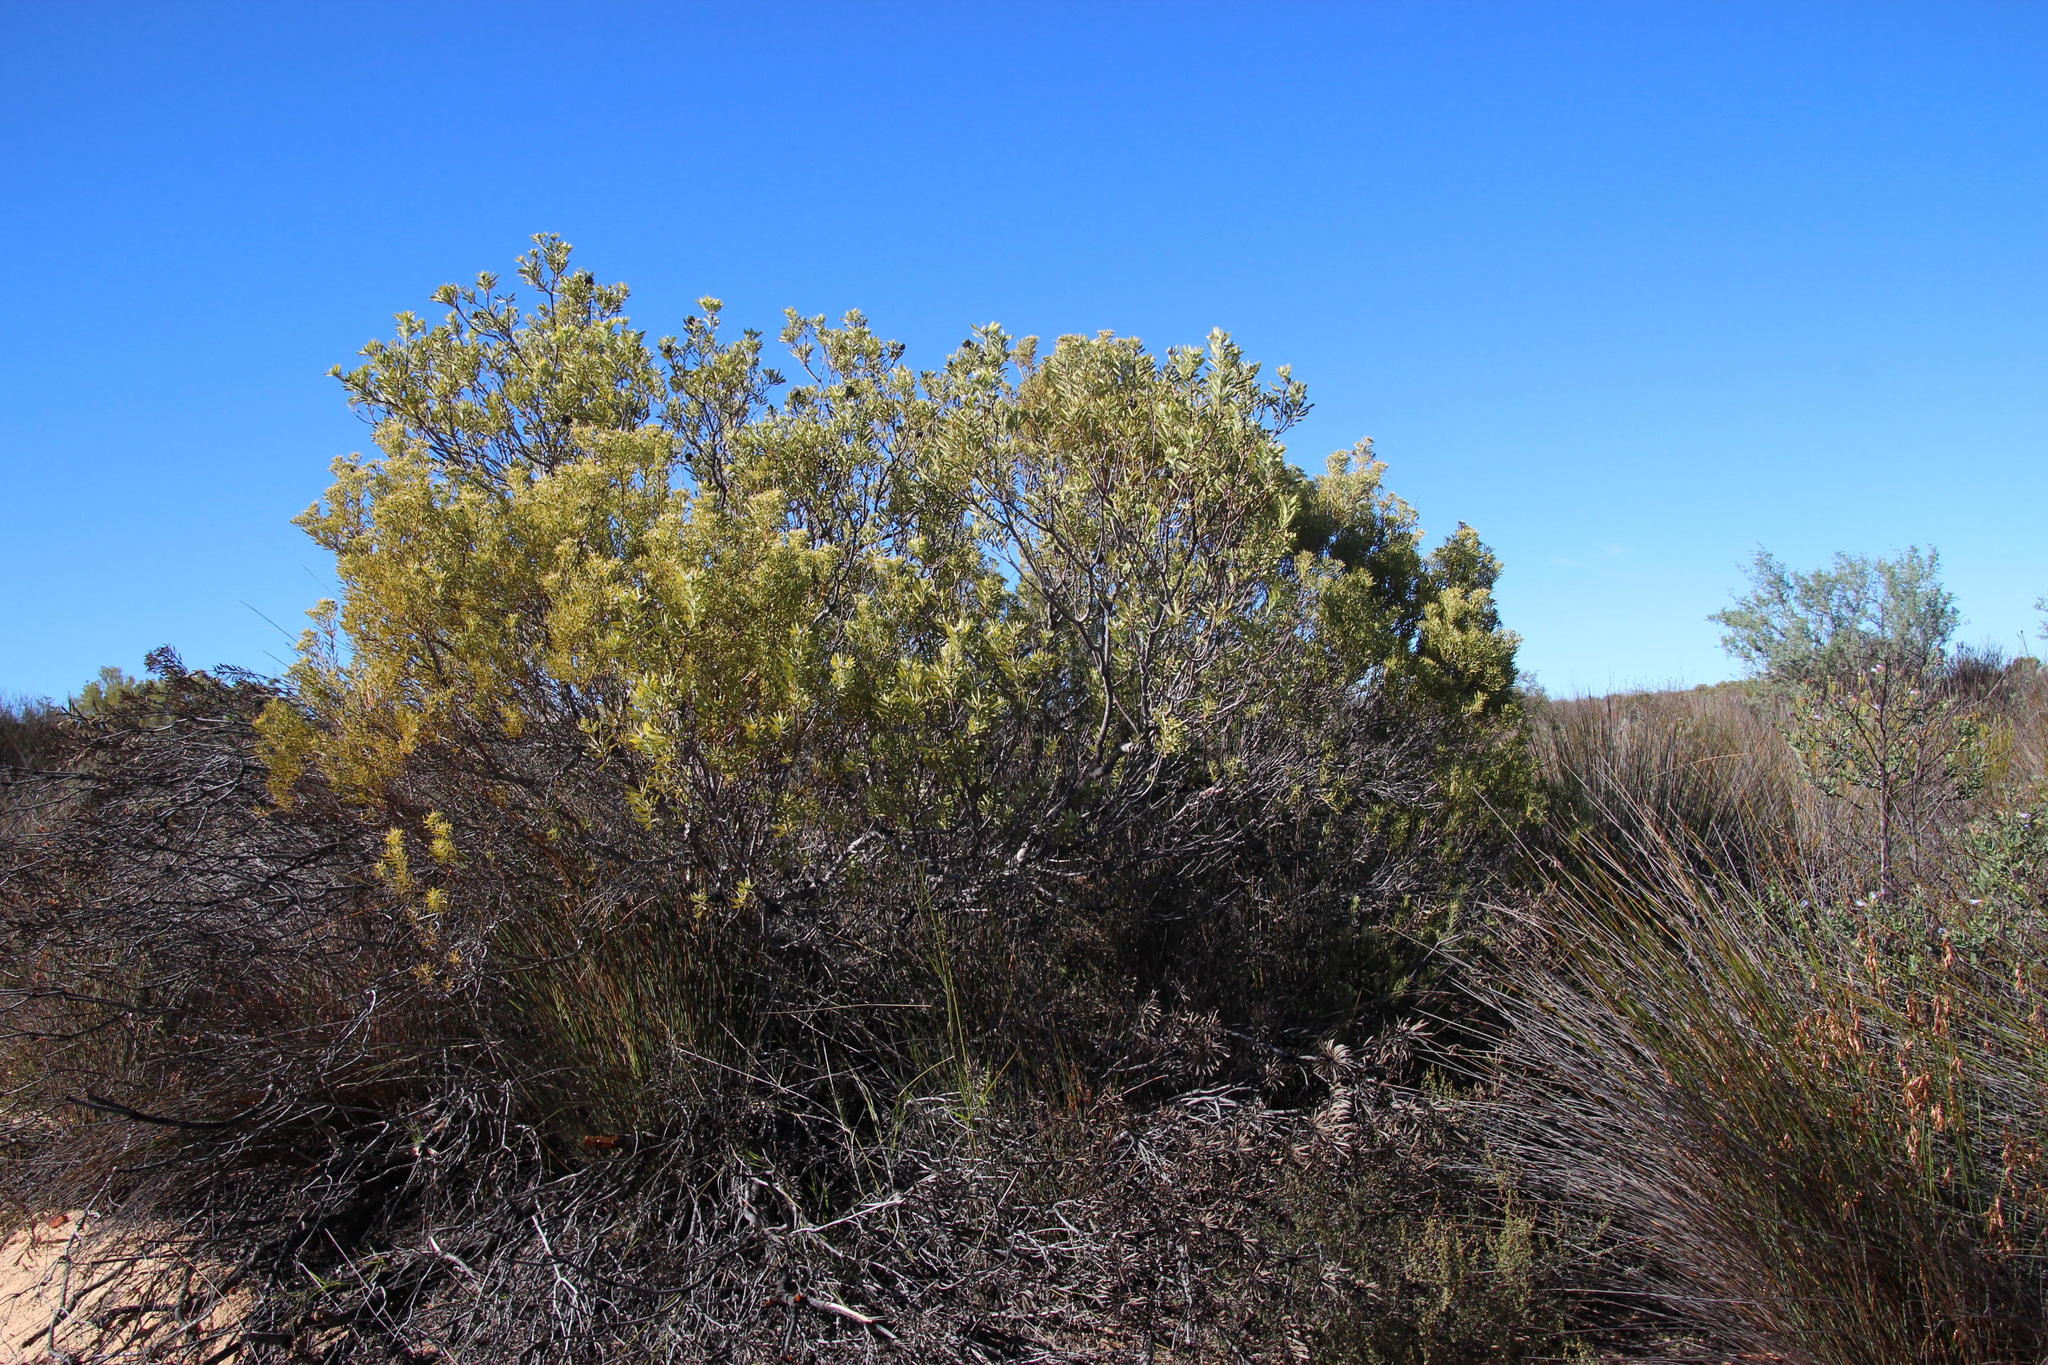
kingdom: Plantae
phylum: Tracheophyta
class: Magnoliopsida
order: Proteales
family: Proteaceae
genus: Leucadendron
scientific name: Leucadendron pubescens
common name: Grey conebush
